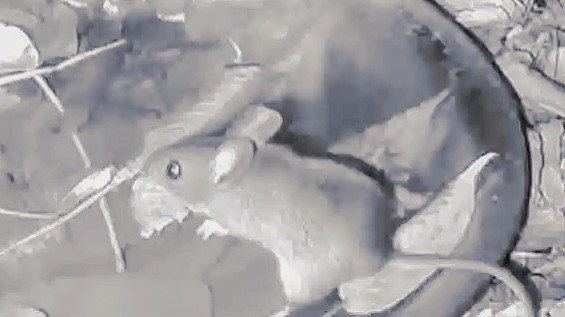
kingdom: Animalia
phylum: Chordata
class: Mammalia
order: Rodentia
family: Muridae
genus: Apodemus
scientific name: Apodemus sylvaticus
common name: Wood mouse
